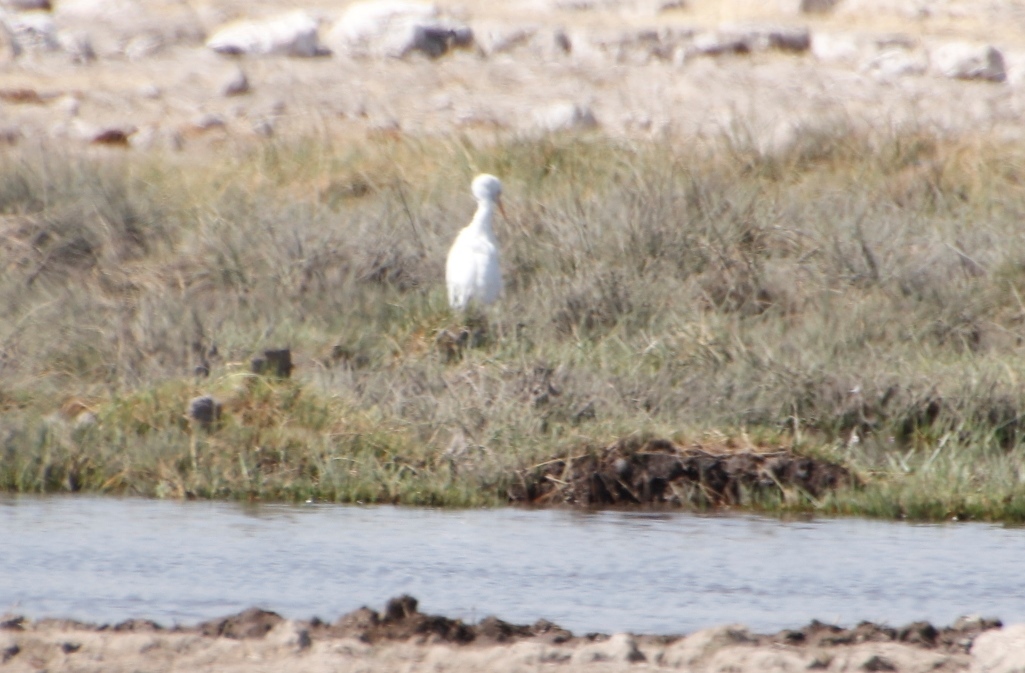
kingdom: Animalia
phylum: Chordata
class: Aves
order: Pelecaniformes
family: Ardeidae
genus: Bubulcus
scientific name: Bubulcus ibis
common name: Cattle egret
